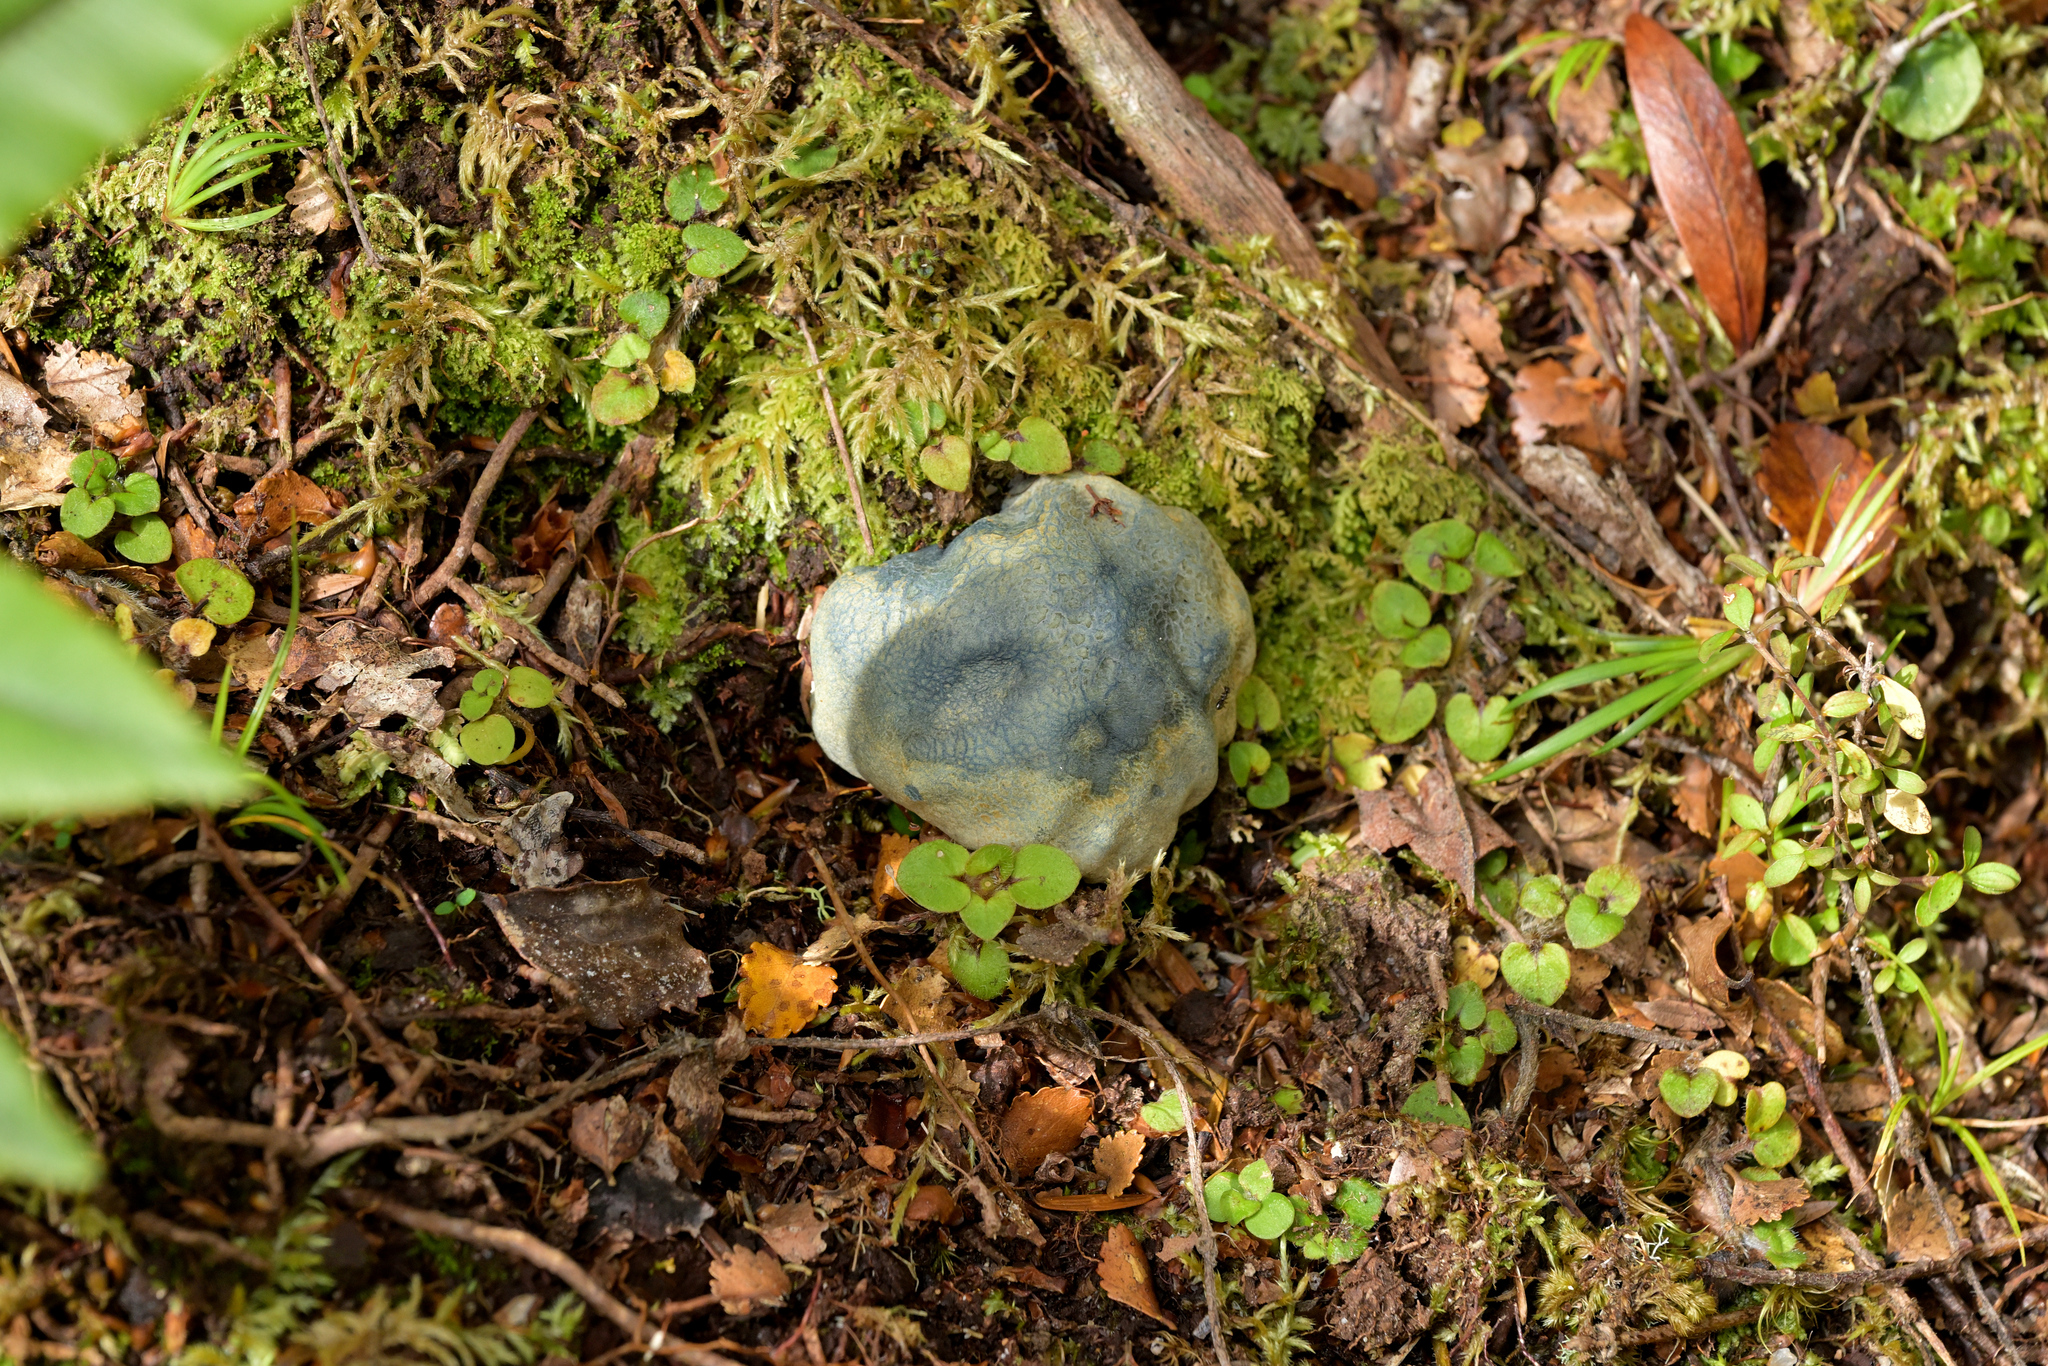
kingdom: Fungi
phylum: Basidiomycota
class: Agaricomycetes
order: Boletales
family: Boletaceae
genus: Leccinum
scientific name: Leccinum pachyderme
